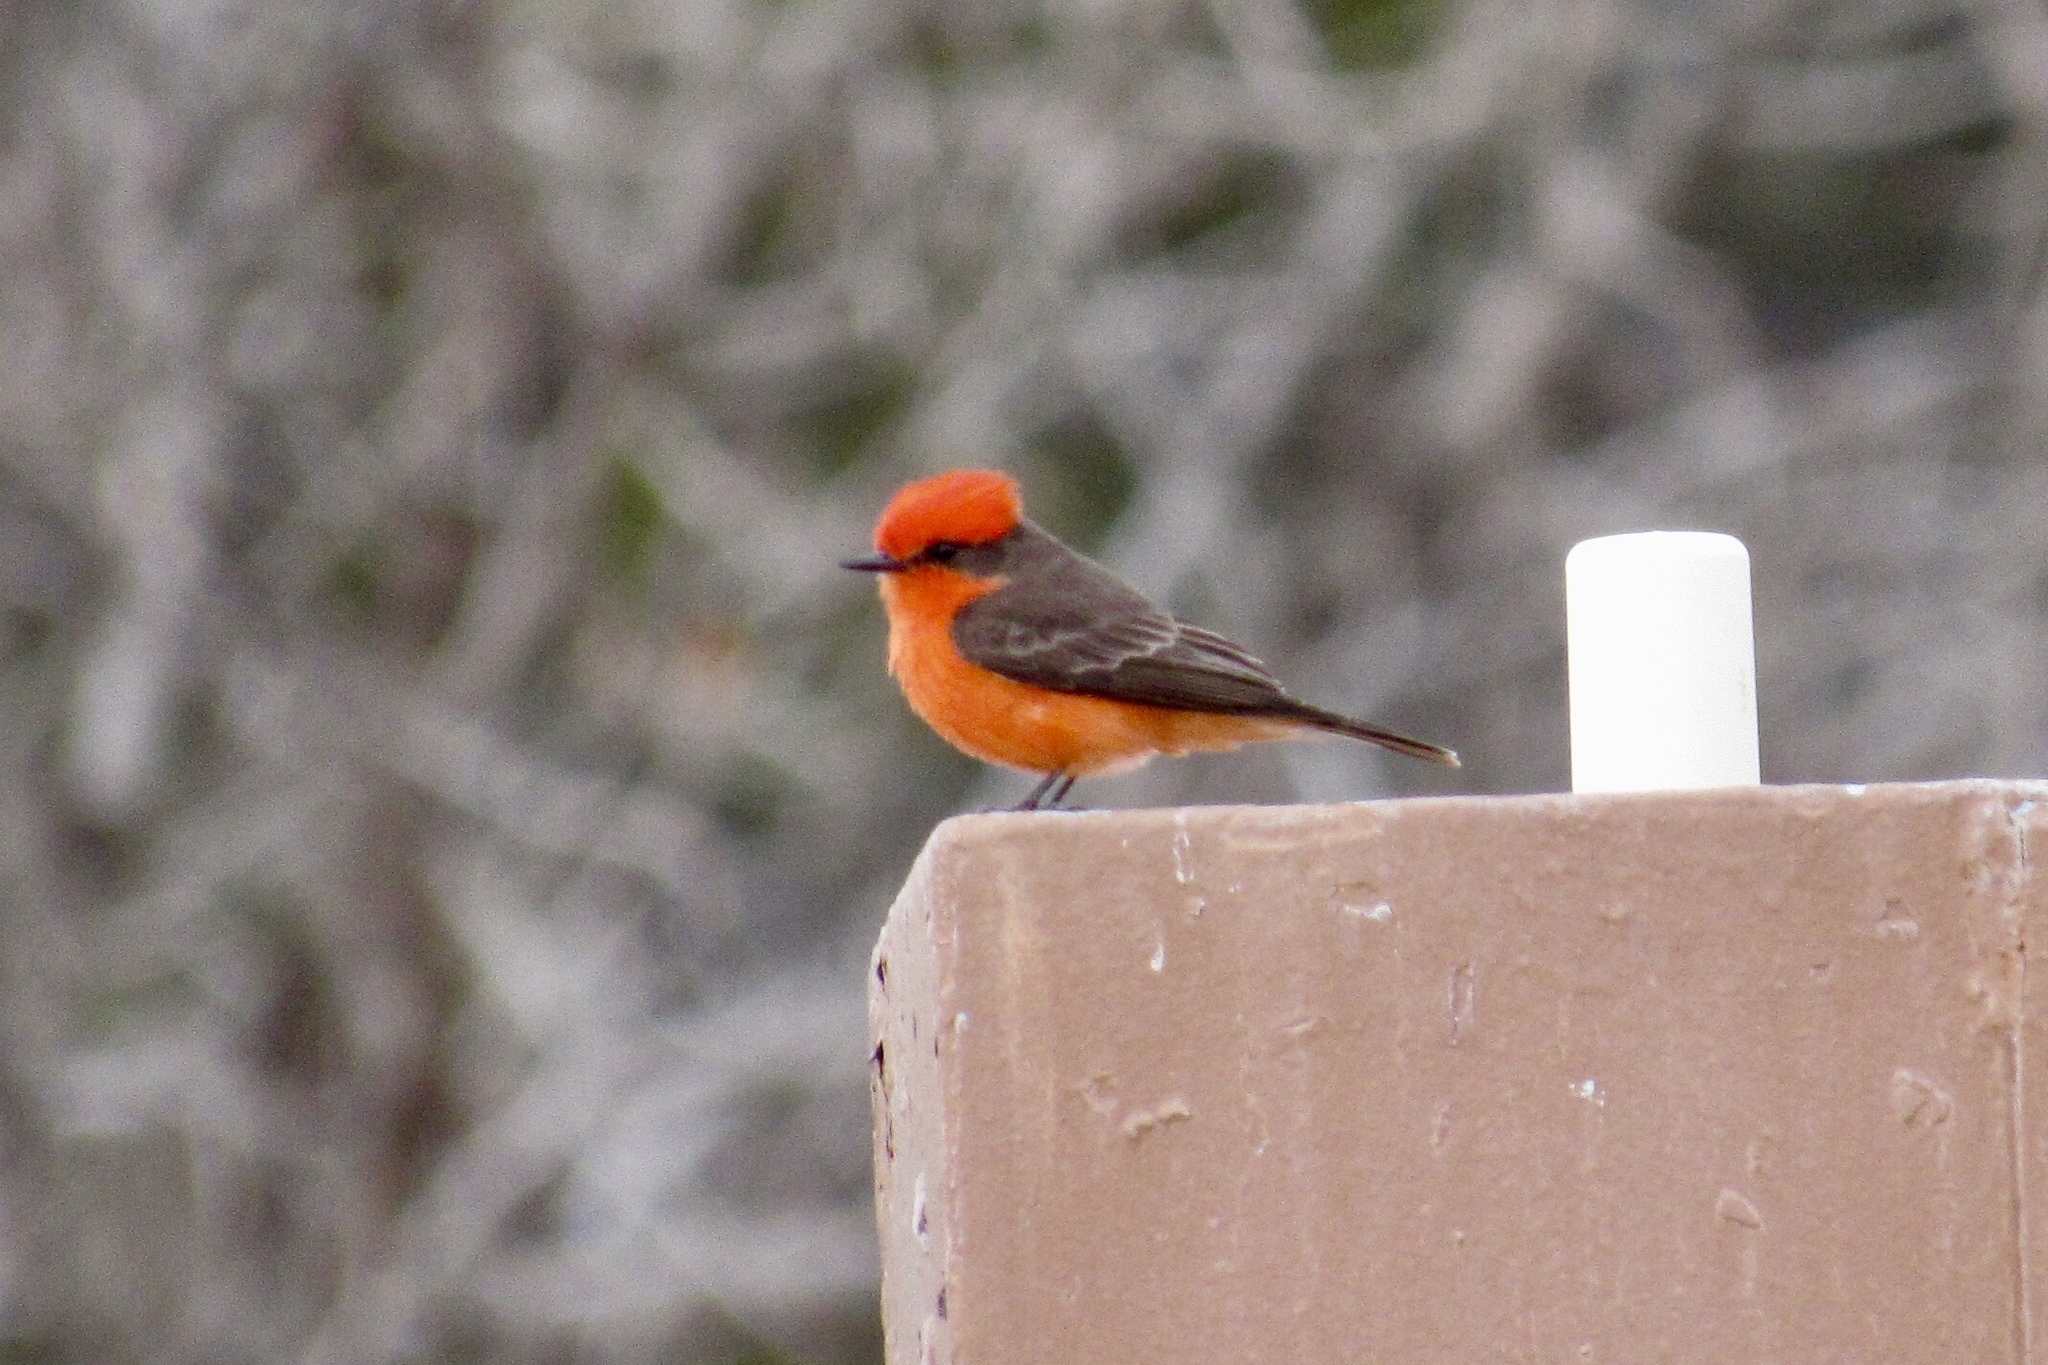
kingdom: Animalia
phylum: Chordata
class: Aves
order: Passeriformes
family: Tyrannidae
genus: Pyrocephalus
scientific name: Pyrocephalus rubinus
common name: Vermilion flycatcher
